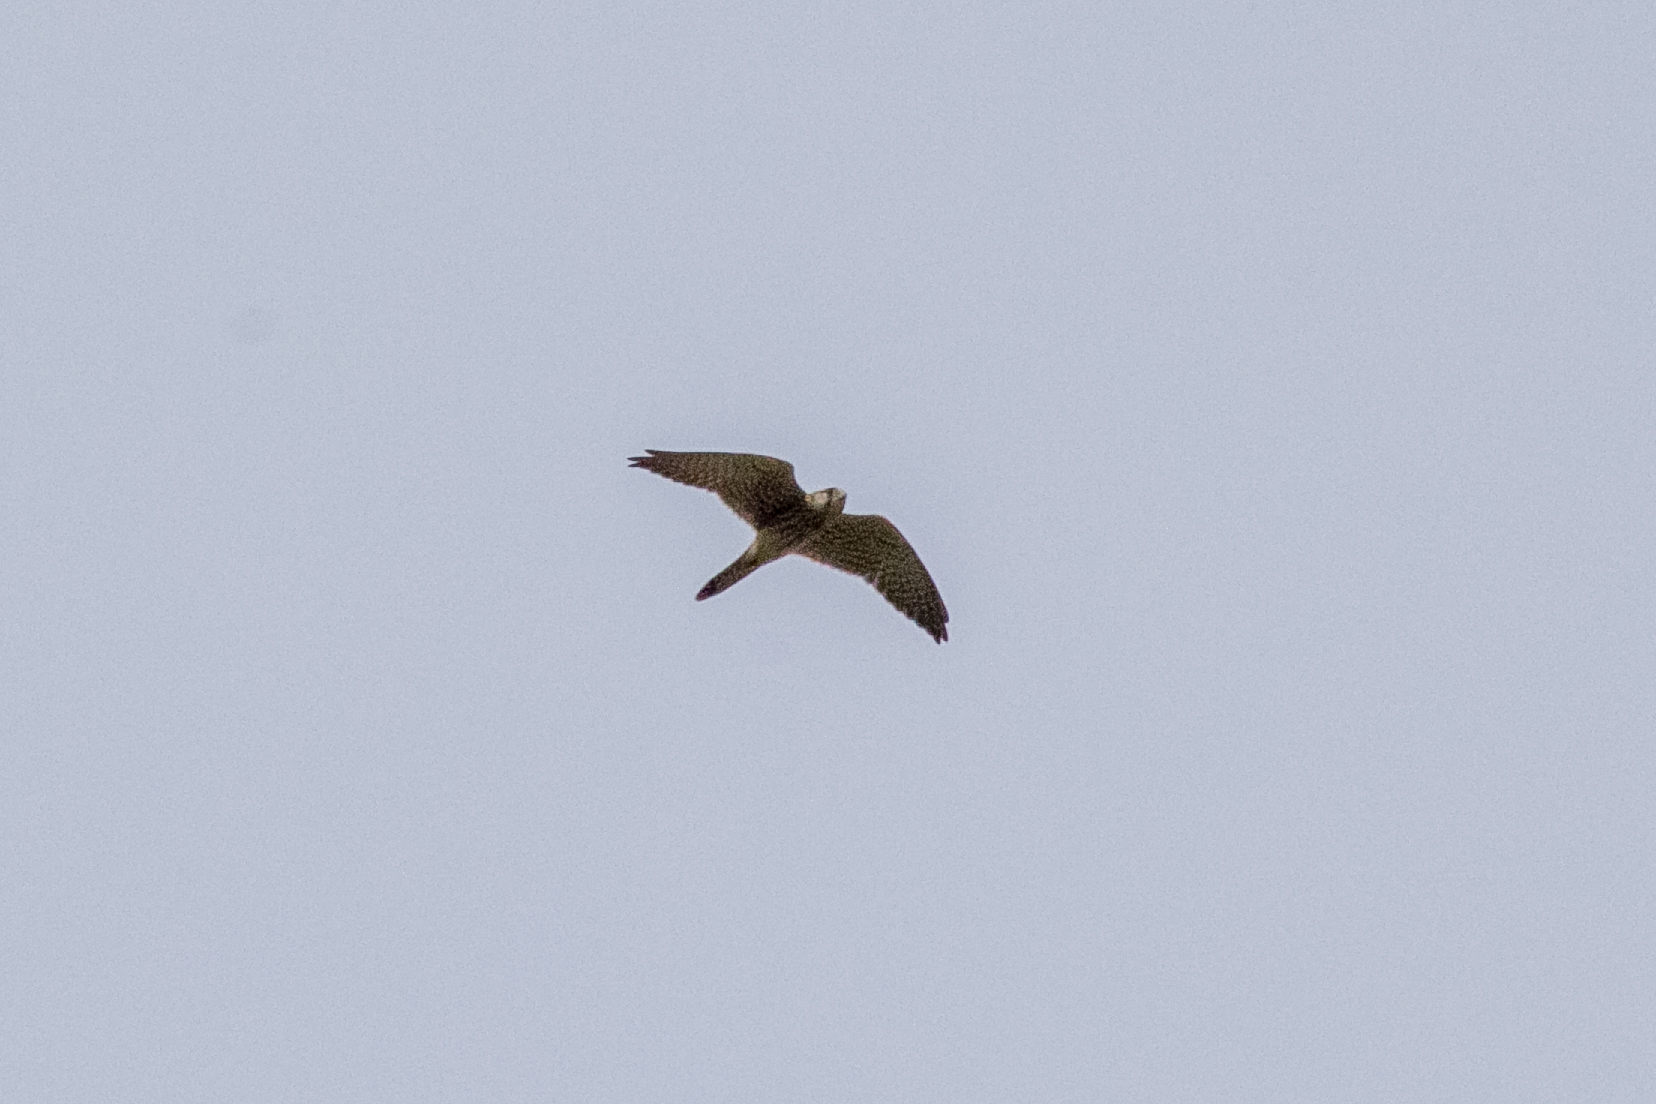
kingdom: Animalia
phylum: Chordata
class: Aves
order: Falconiformes
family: Falconidae
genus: Falco
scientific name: Falco tinnunculus
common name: Common kestrel
